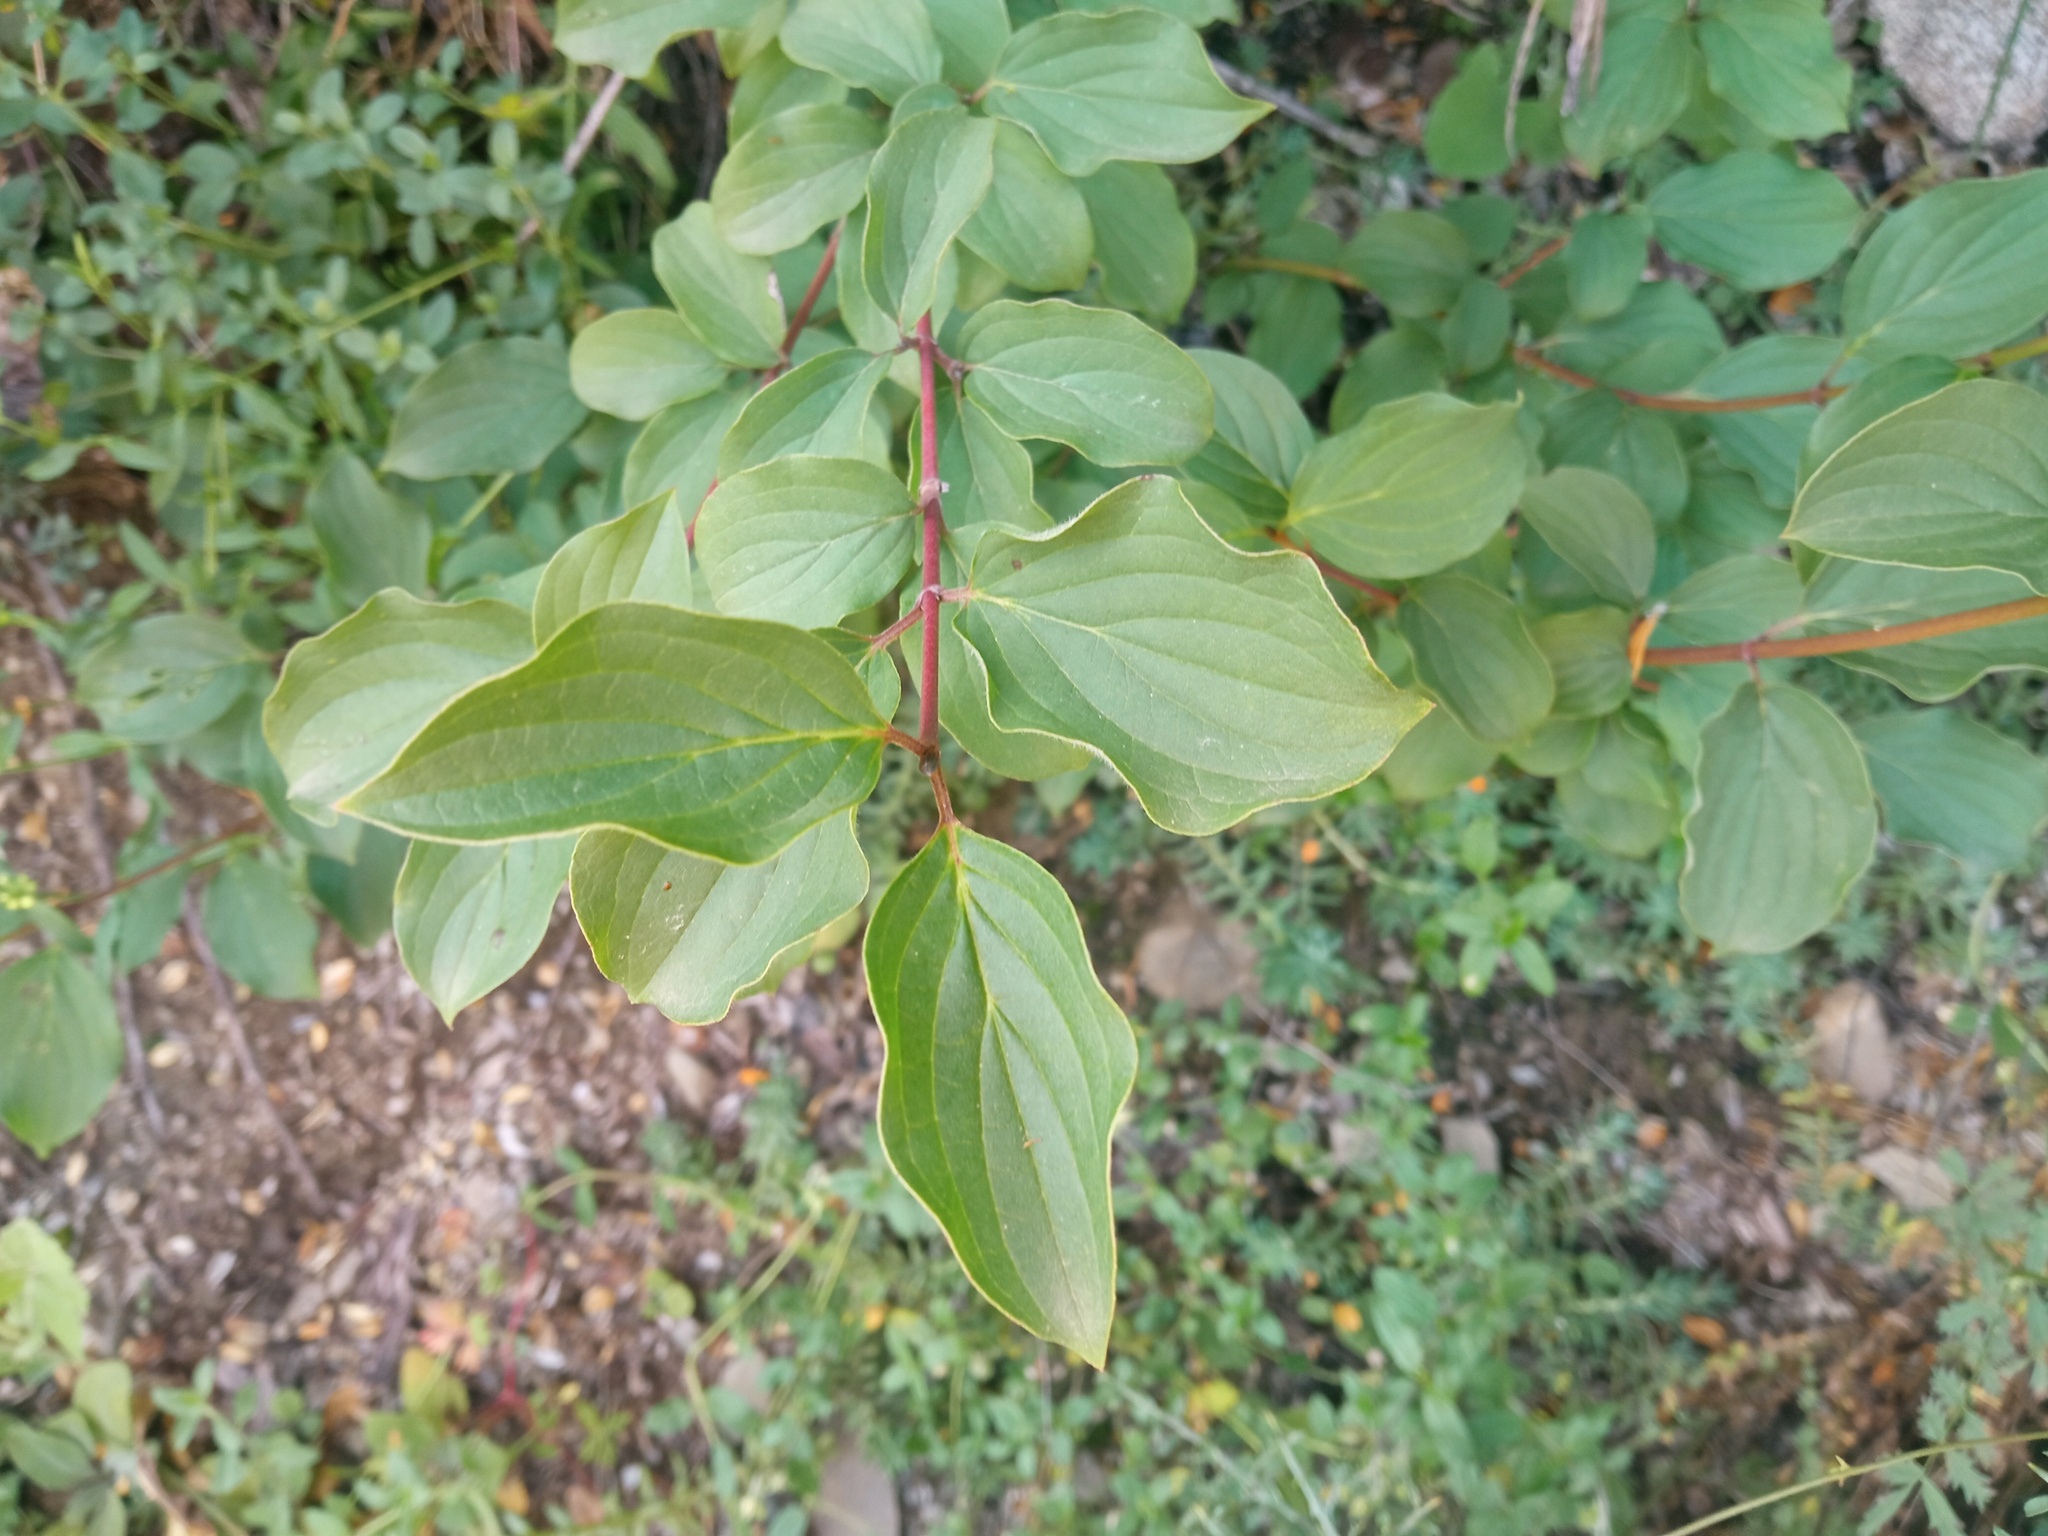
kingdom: Plantae
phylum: Tracheophyta
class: Magnoliopsida
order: Cornales
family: Cornaceae
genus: Cornus
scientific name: Cornus sanguinea
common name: Dogwood
